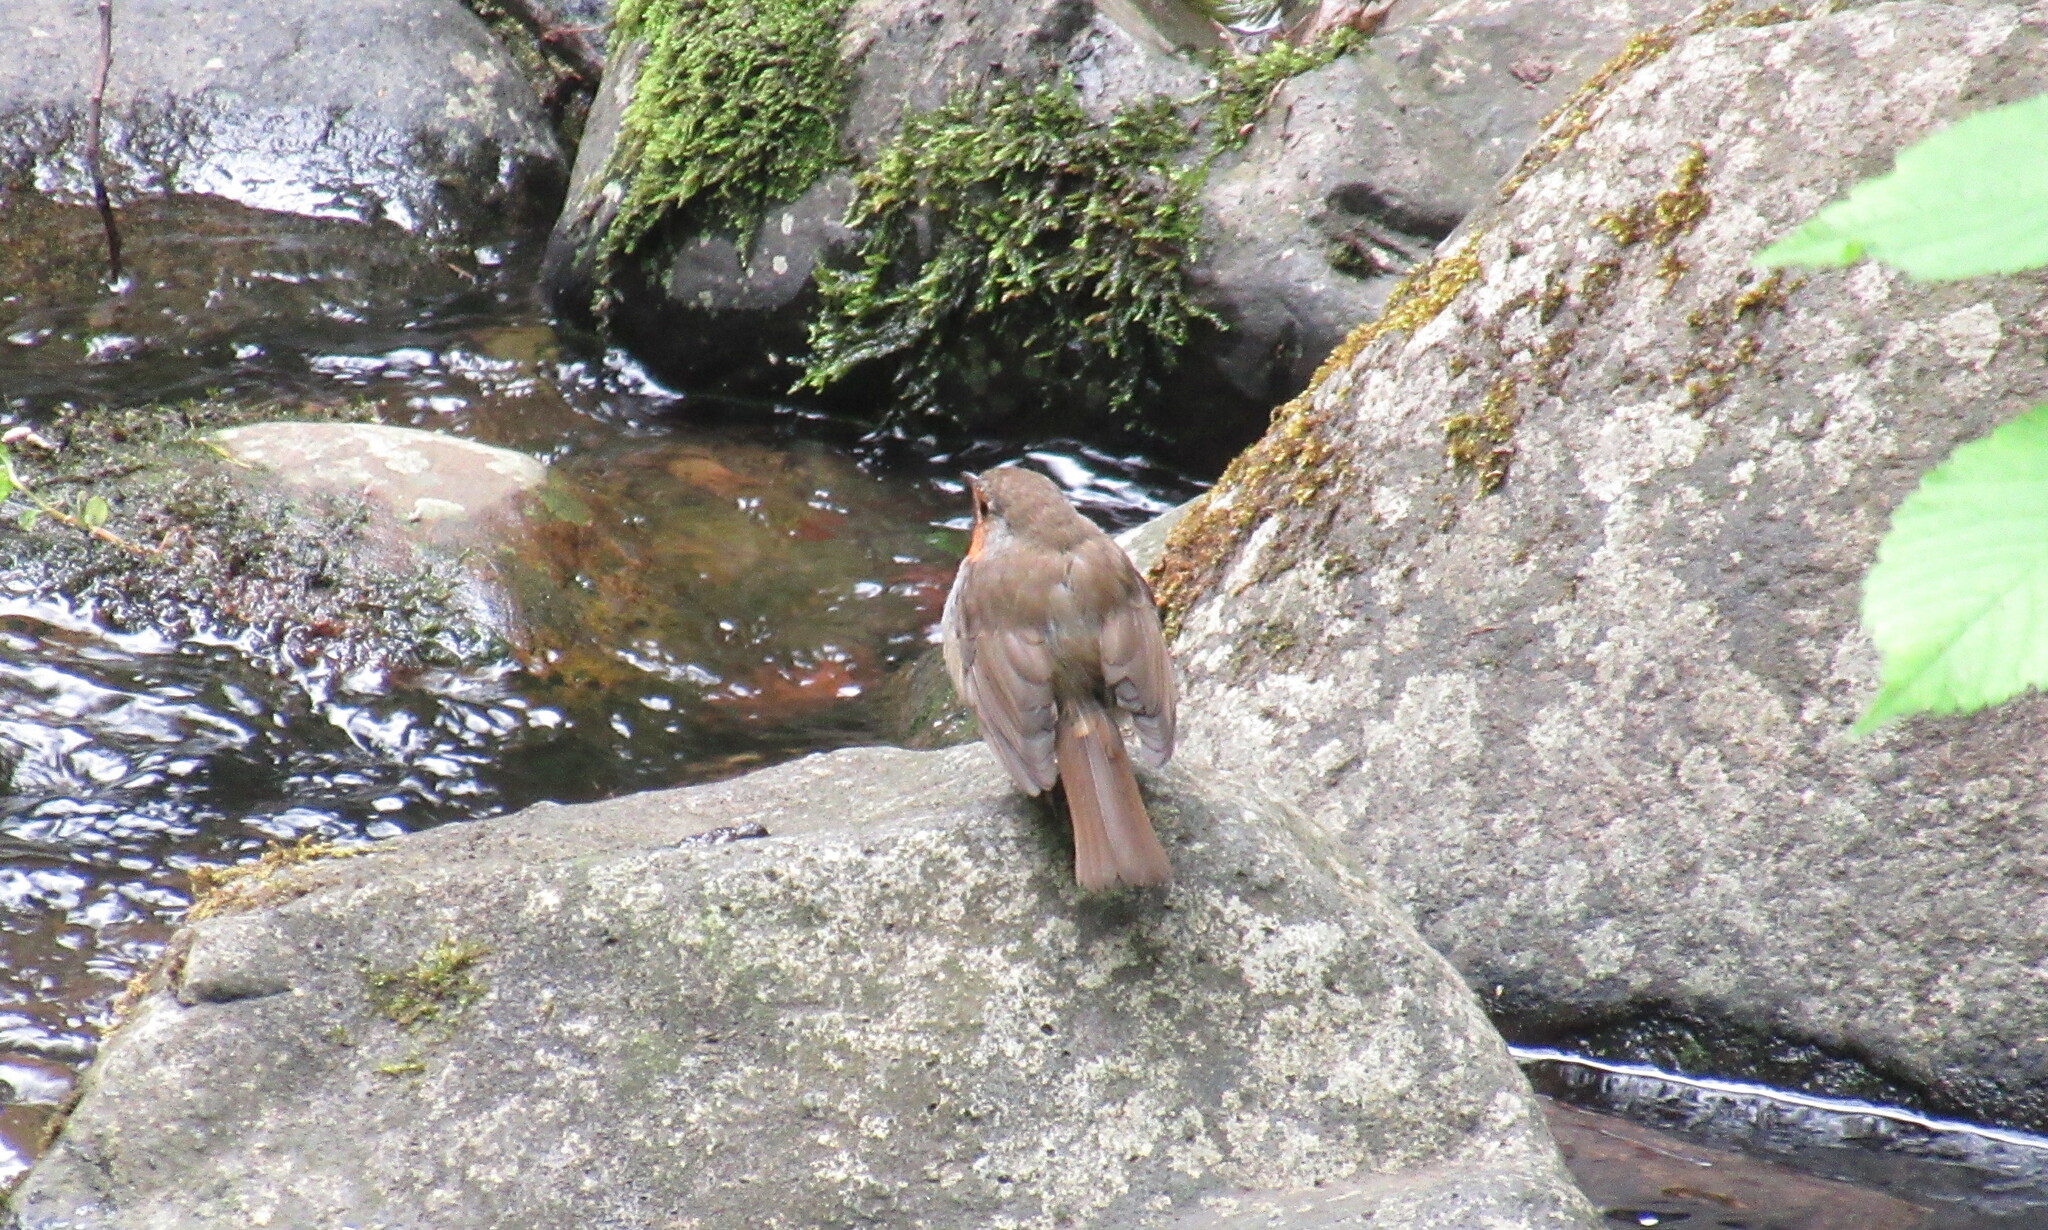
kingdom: Animalia
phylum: Chordata
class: Aves
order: Passeriformes
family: Muscicapidae
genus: Erithacus
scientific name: Erithacus rubecula
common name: European robin
